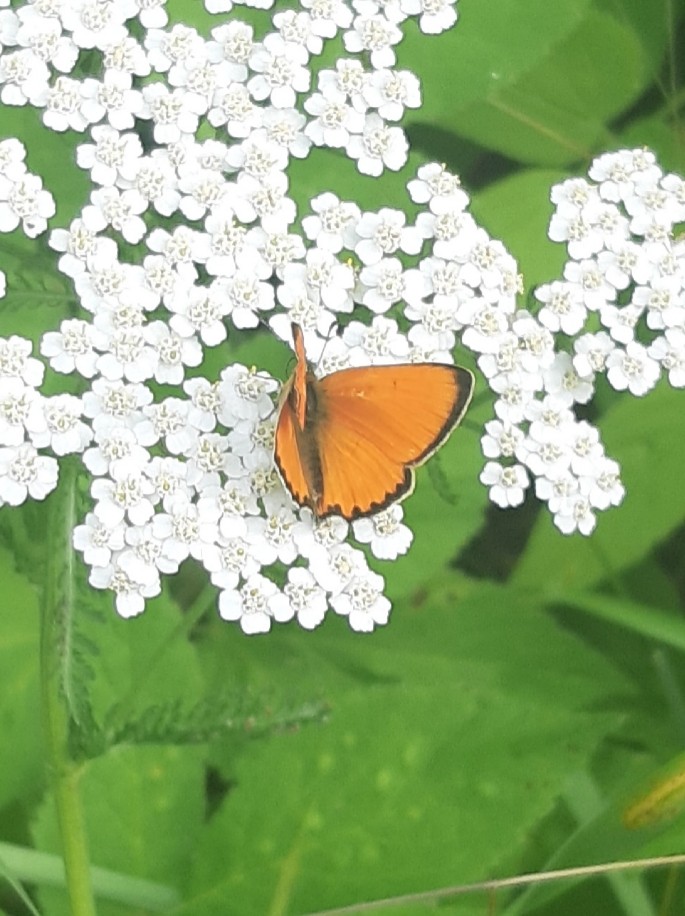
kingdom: Animalia
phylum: Arthropoda
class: Insecta
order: Lepidoptera
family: Lycaenidae
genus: Lycaena
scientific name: Lycaena virgaureae
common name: Scarce copper
